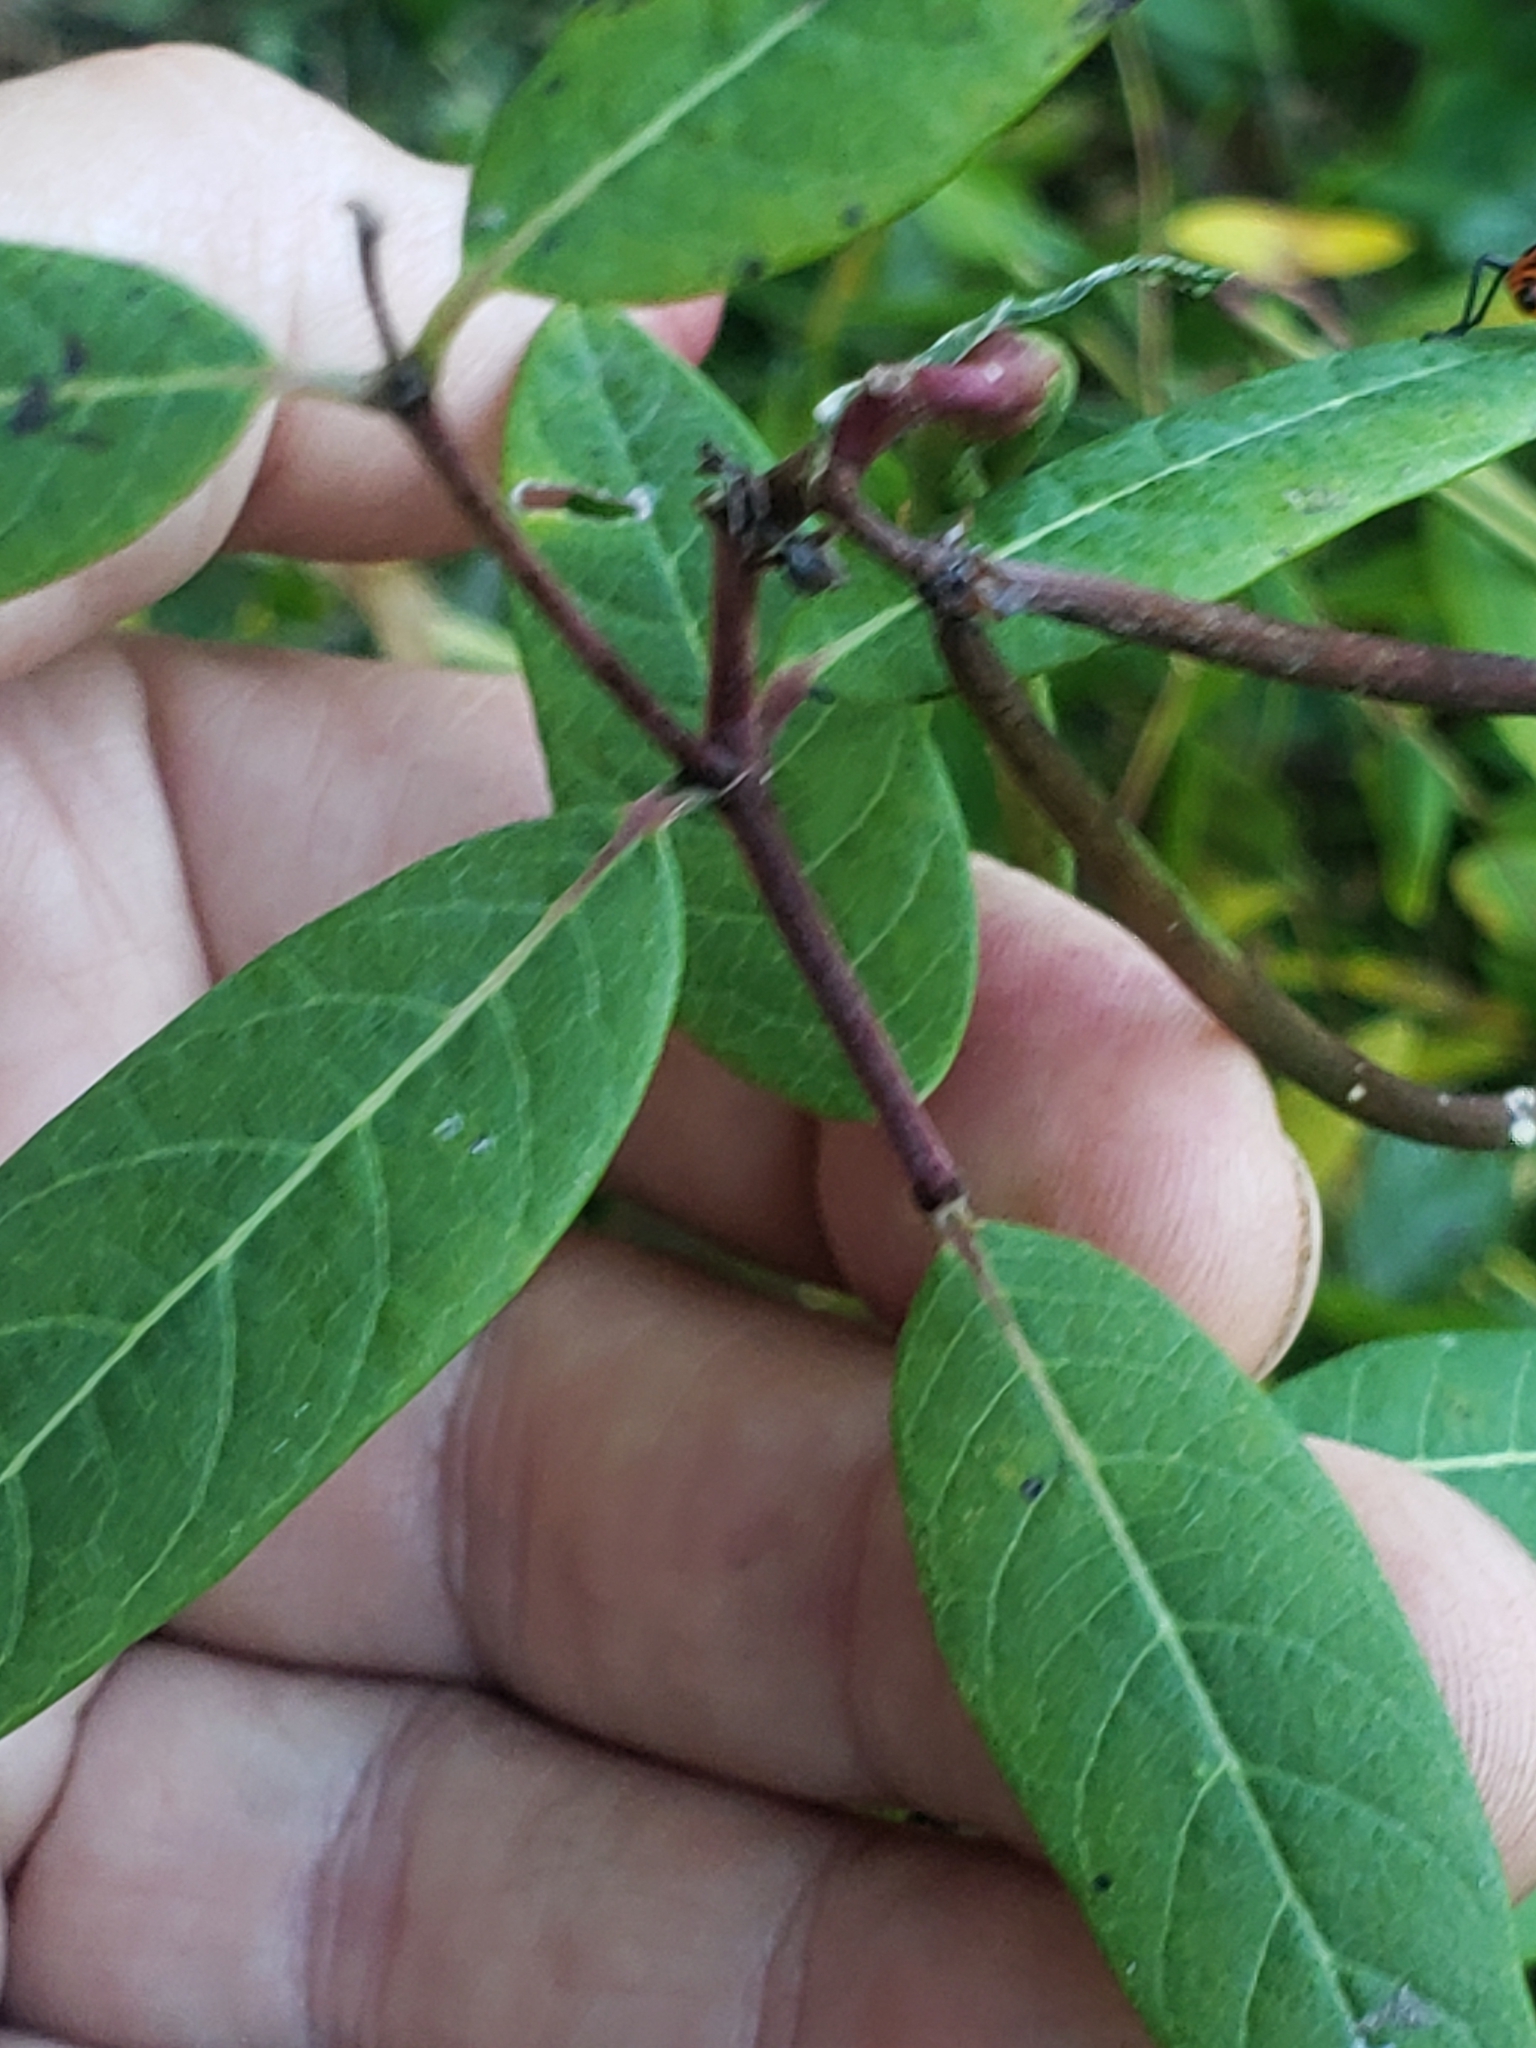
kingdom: Animalia
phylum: Arthropoda
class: Insecta
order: Hemiptera
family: Lygaeidae
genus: Oncopeltus
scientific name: Oncopeltus fasciatus
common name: Large milkweed bug
